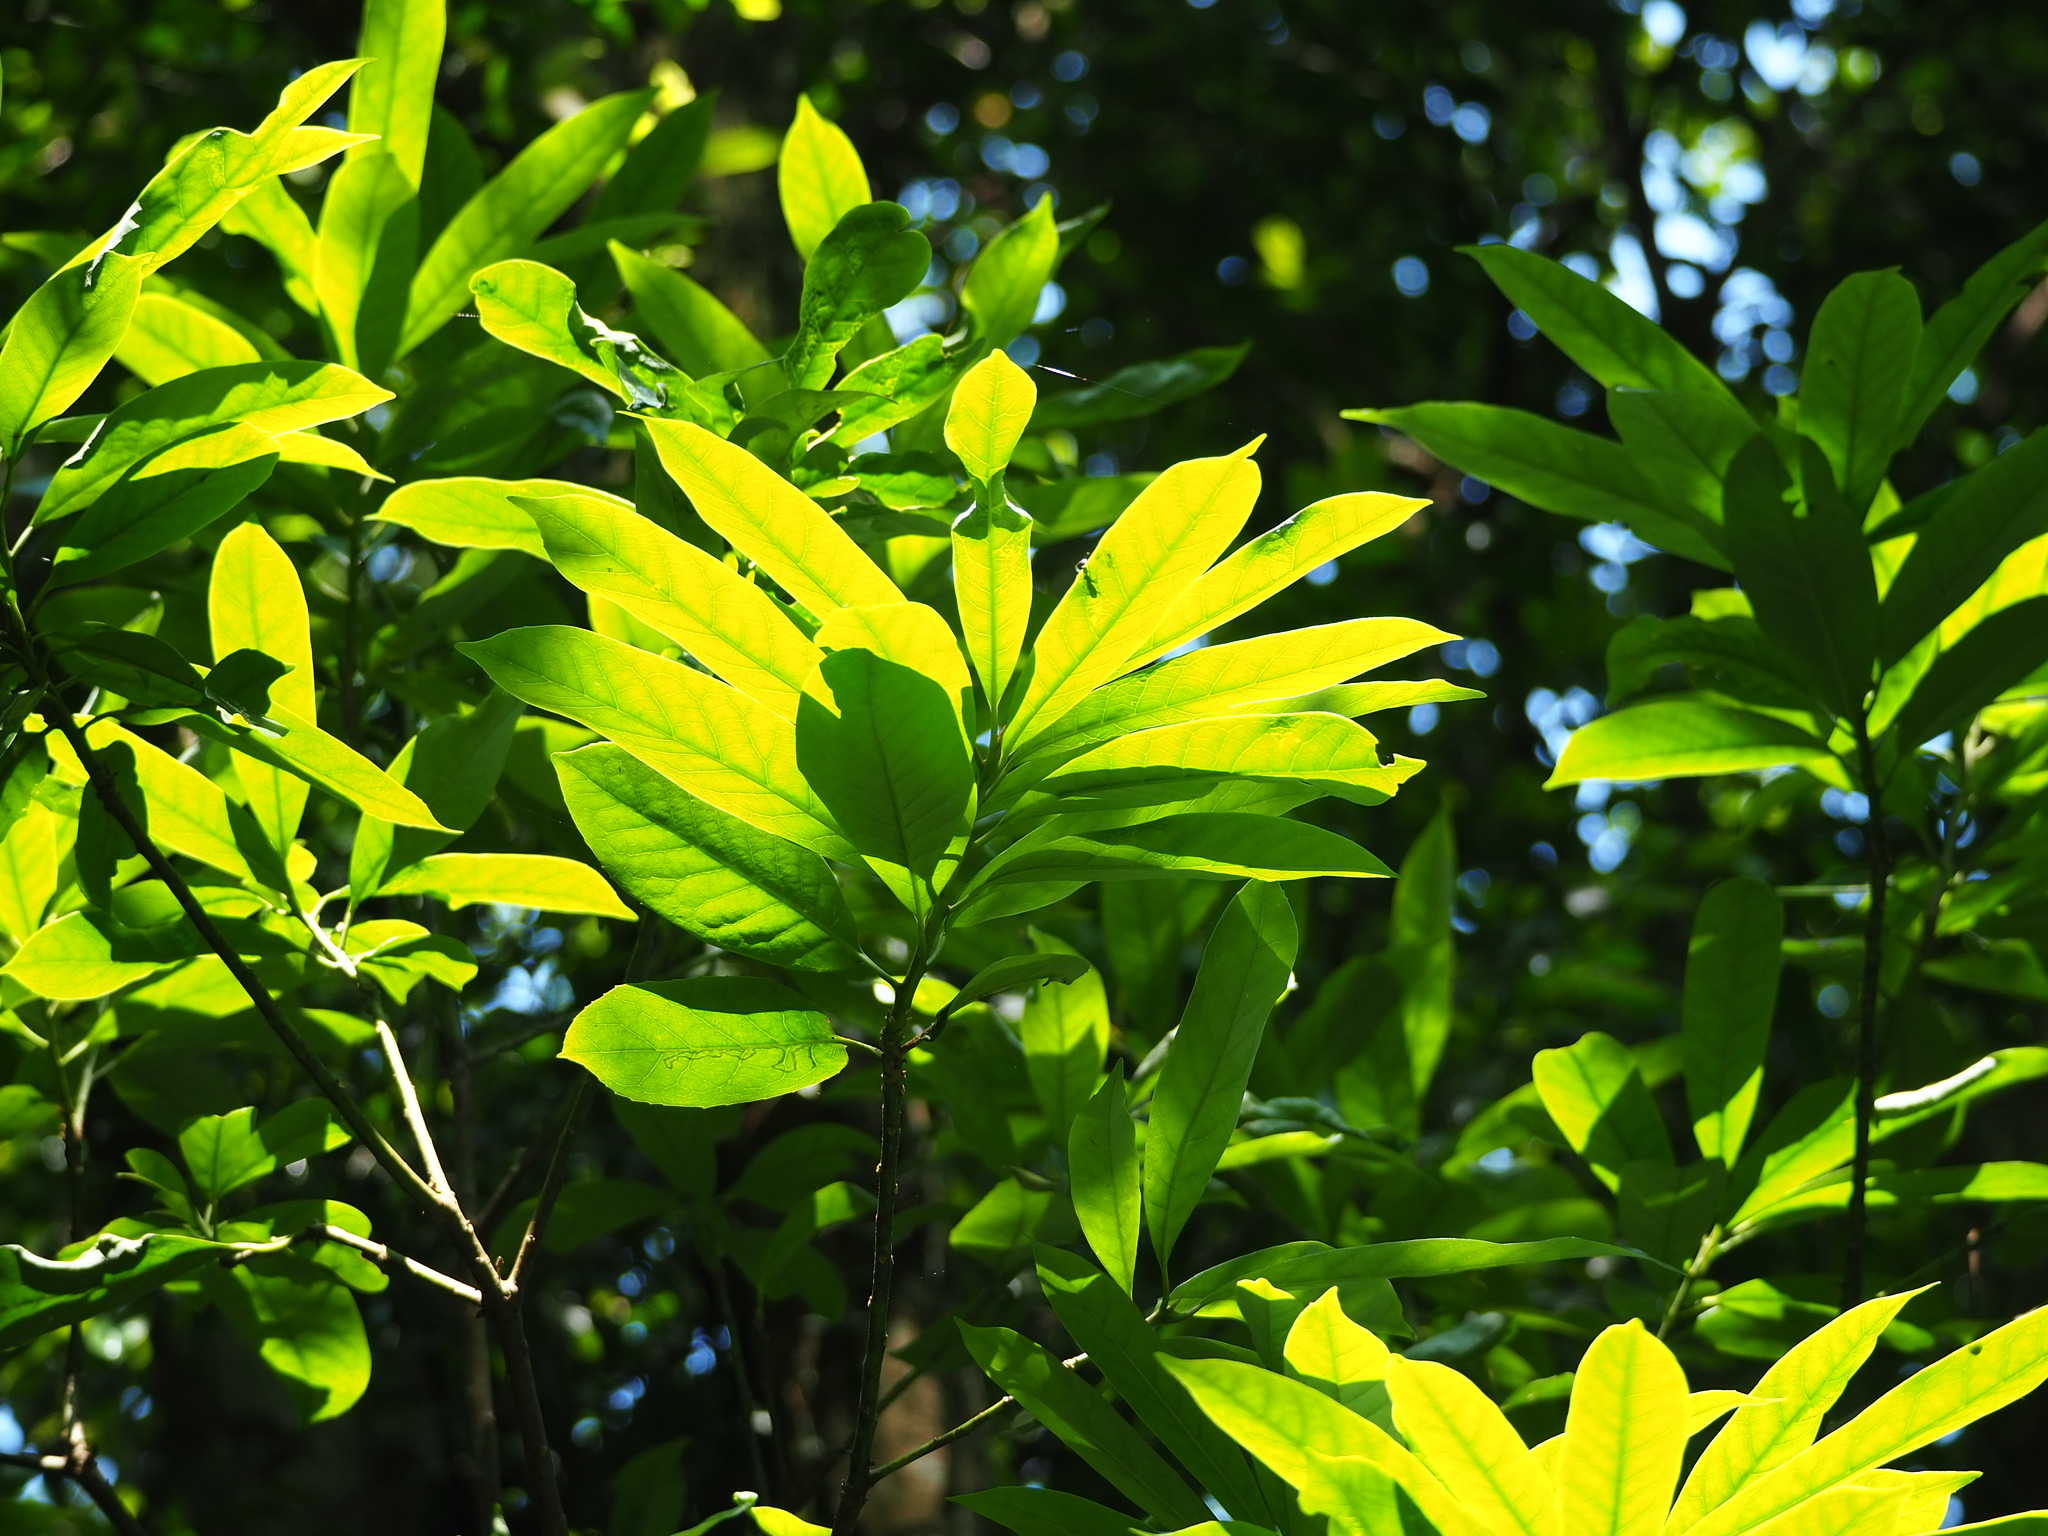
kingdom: Plantae
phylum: Tracheophyta
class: Magnoliopsida
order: Ericales
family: Symplocaceae
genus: Symplocos
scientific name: Symplocos glauca
